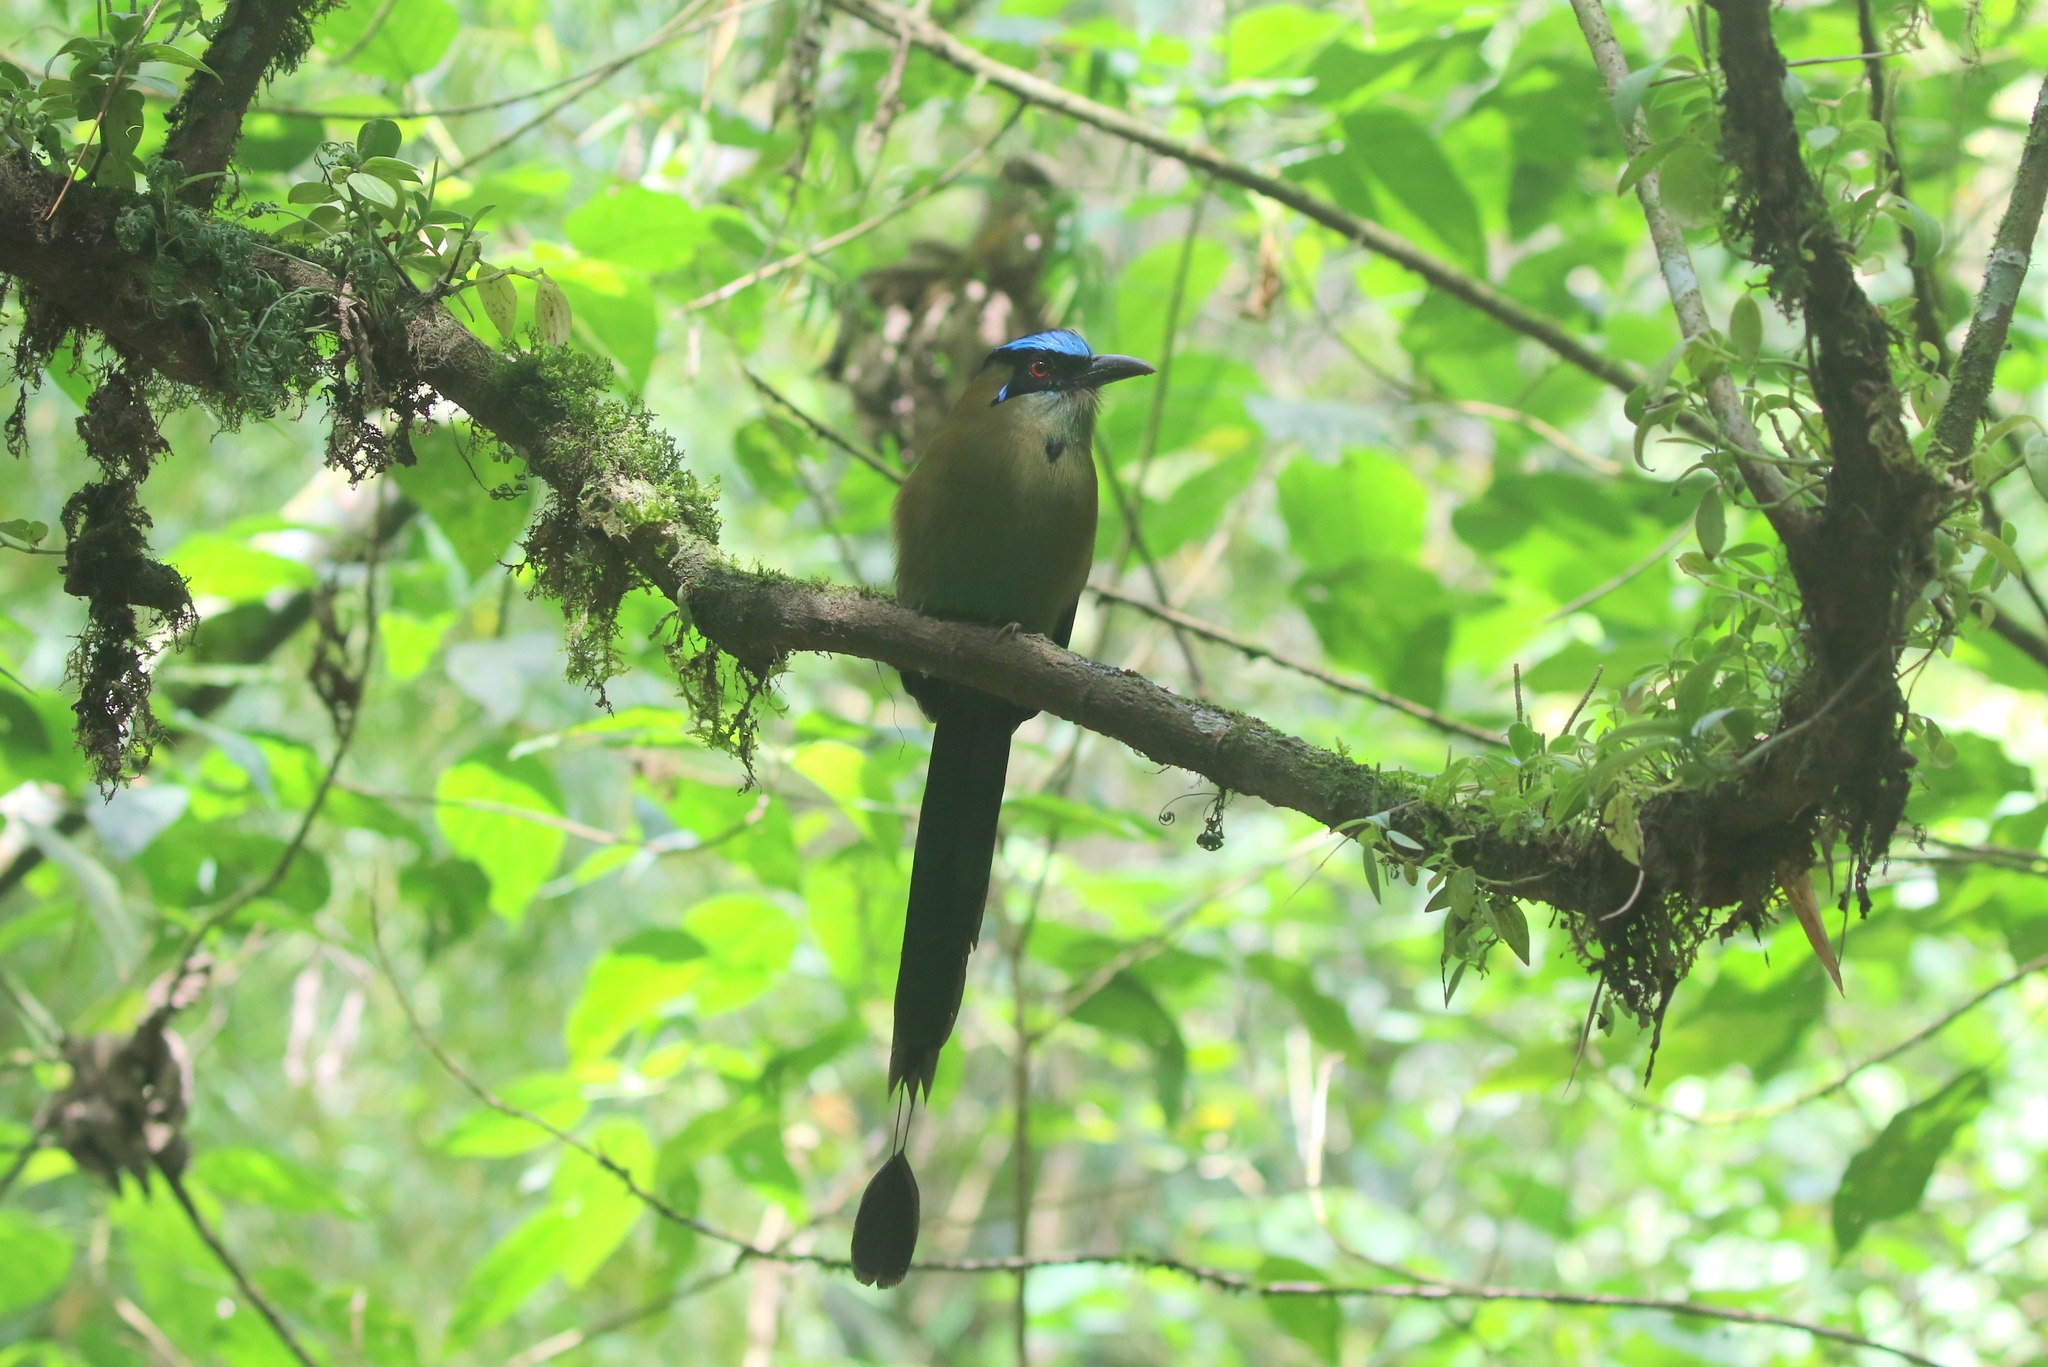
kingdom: Animalia
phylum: Chordata
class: Aves
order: Coraciiformes
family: Momotidae
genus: Momotus
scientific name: Momotus aequatorialis
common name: Andean motmot
